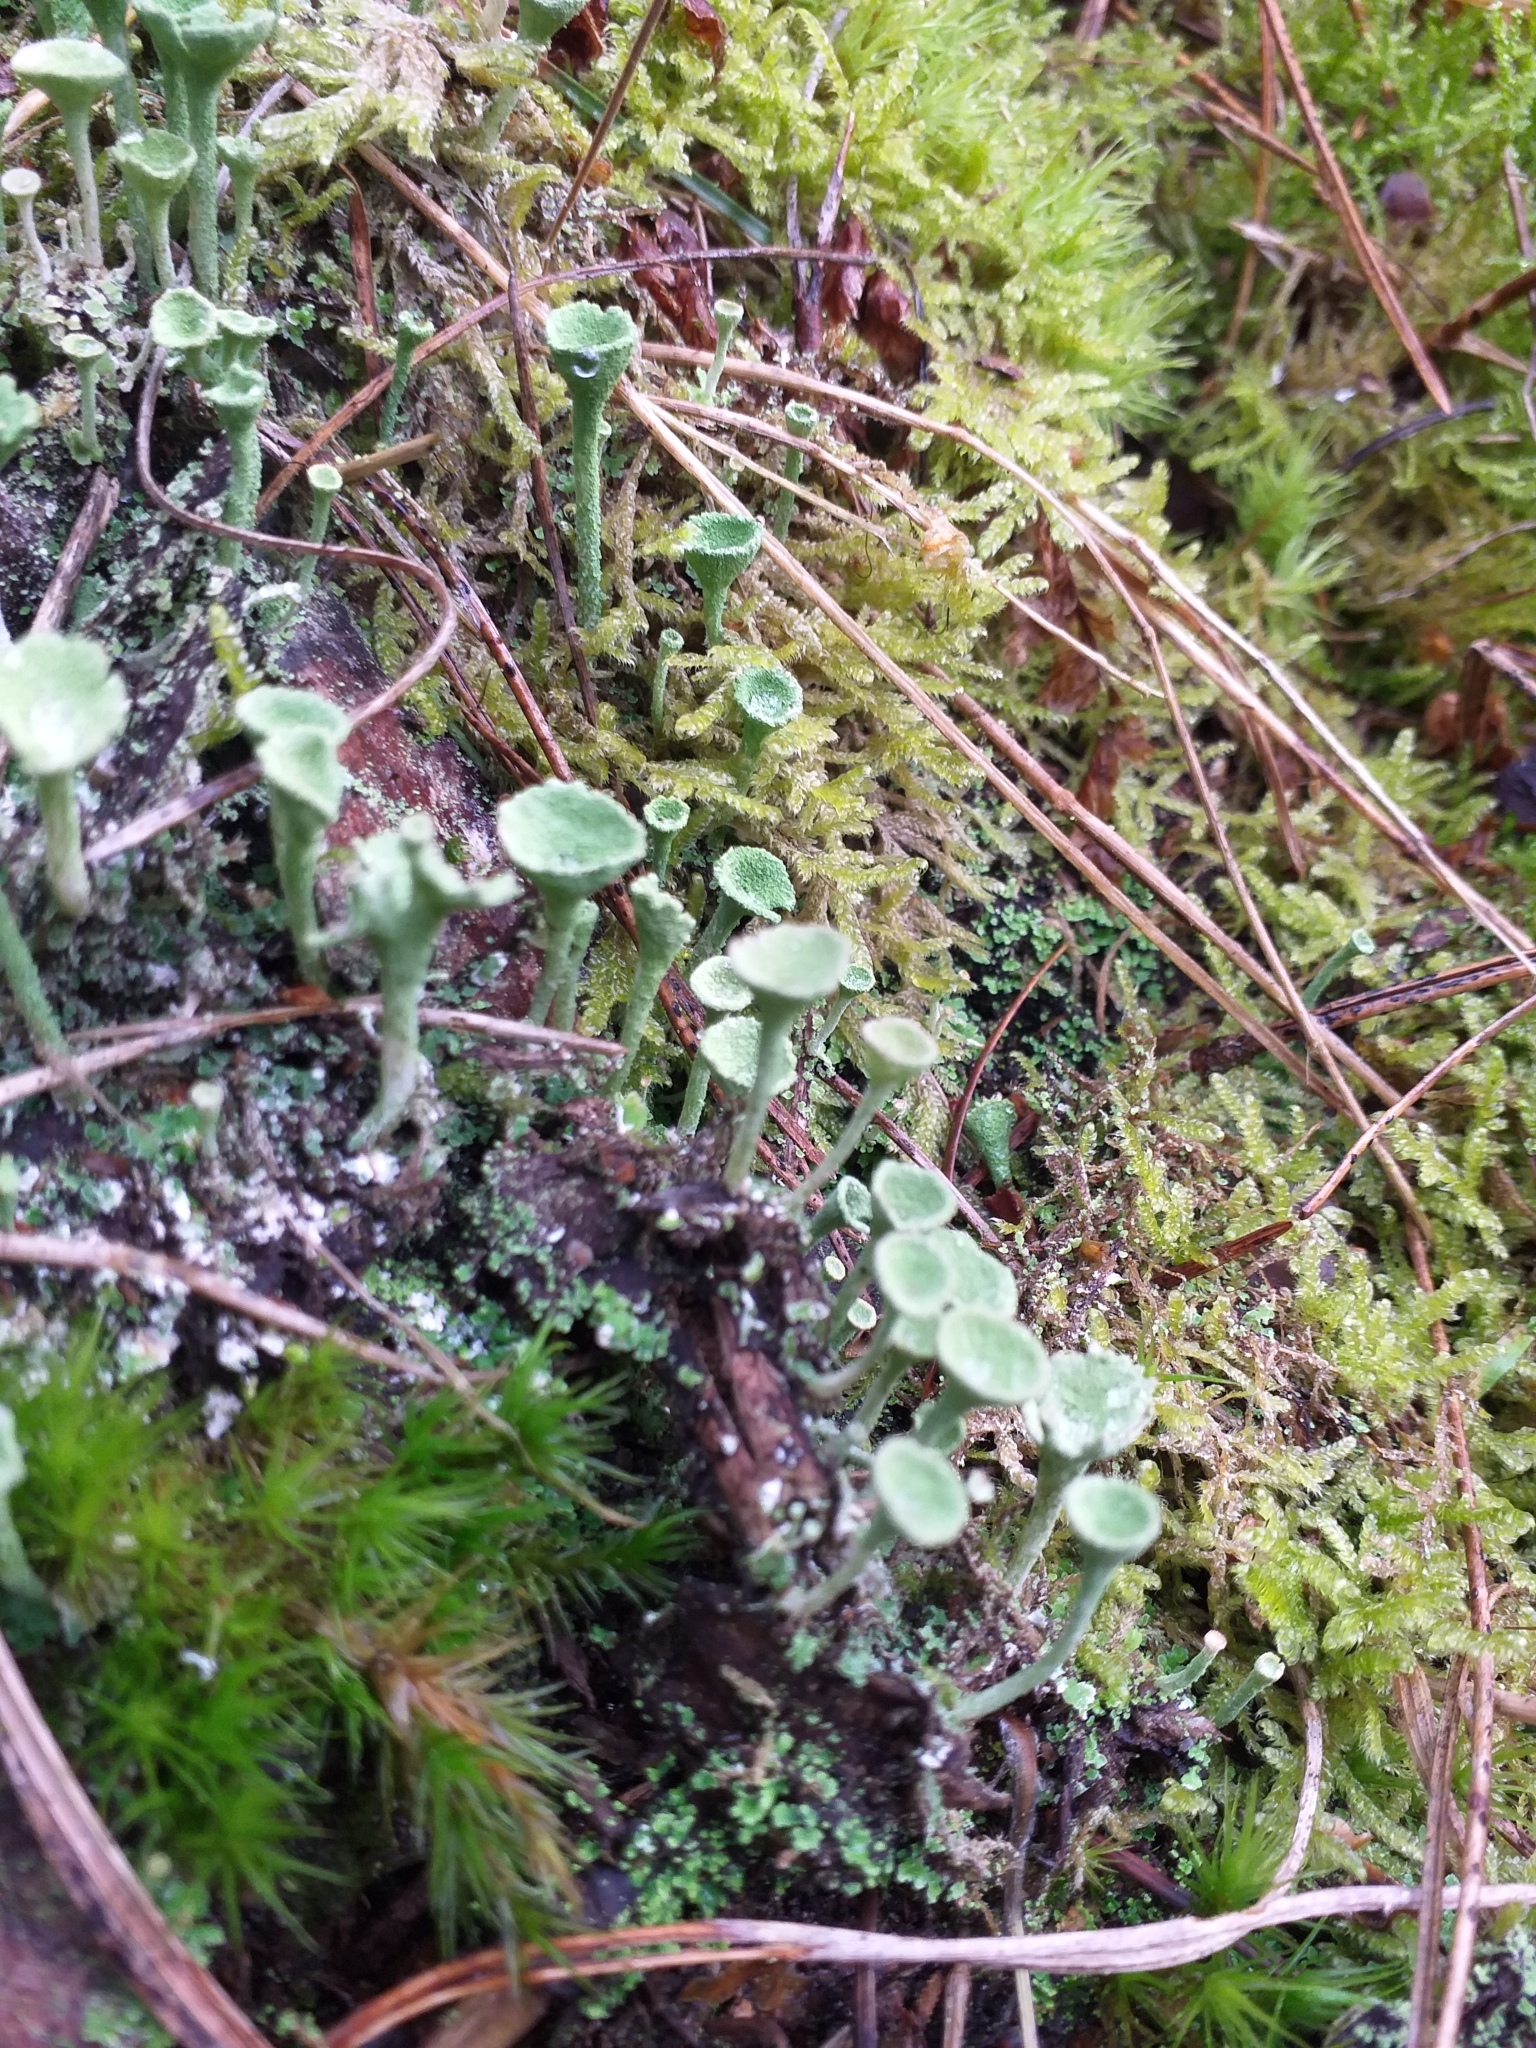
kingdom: Fungi
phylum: Ascomycota
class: Lecanoromycetes
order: Lecanorales
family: Cladoniaceae
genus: Cladonia
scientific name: Cladonia fimbriata
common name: Powdered trumpet lichen
